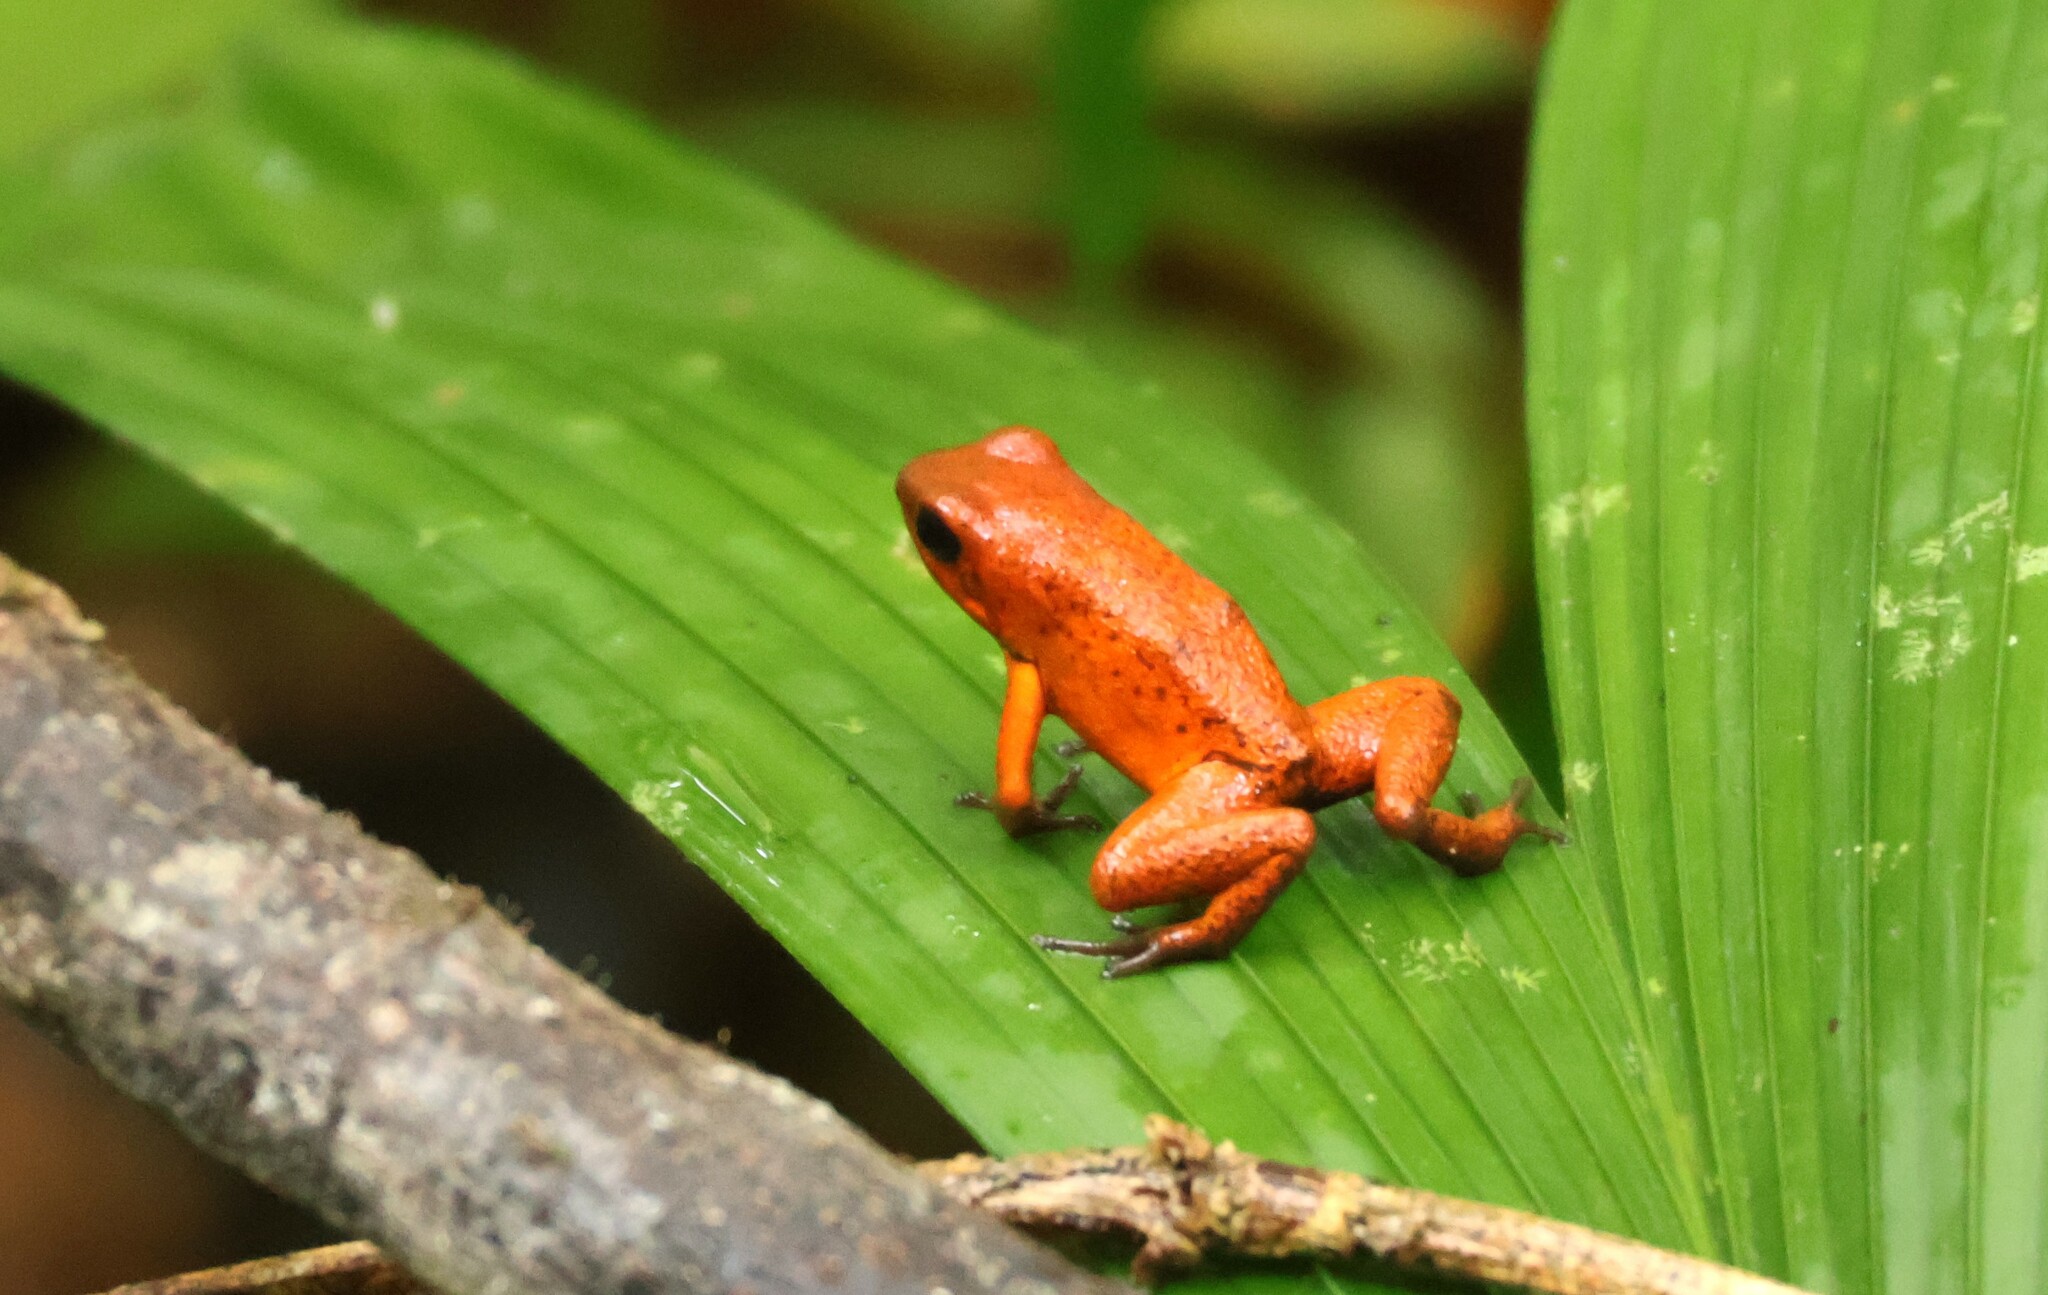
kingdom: Animalia
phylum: Chordata
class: Amphibia
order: Anura
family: Dendrobatidae
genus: Oophaga
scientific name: Oophaga pumilio
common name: Flaming poison frog
